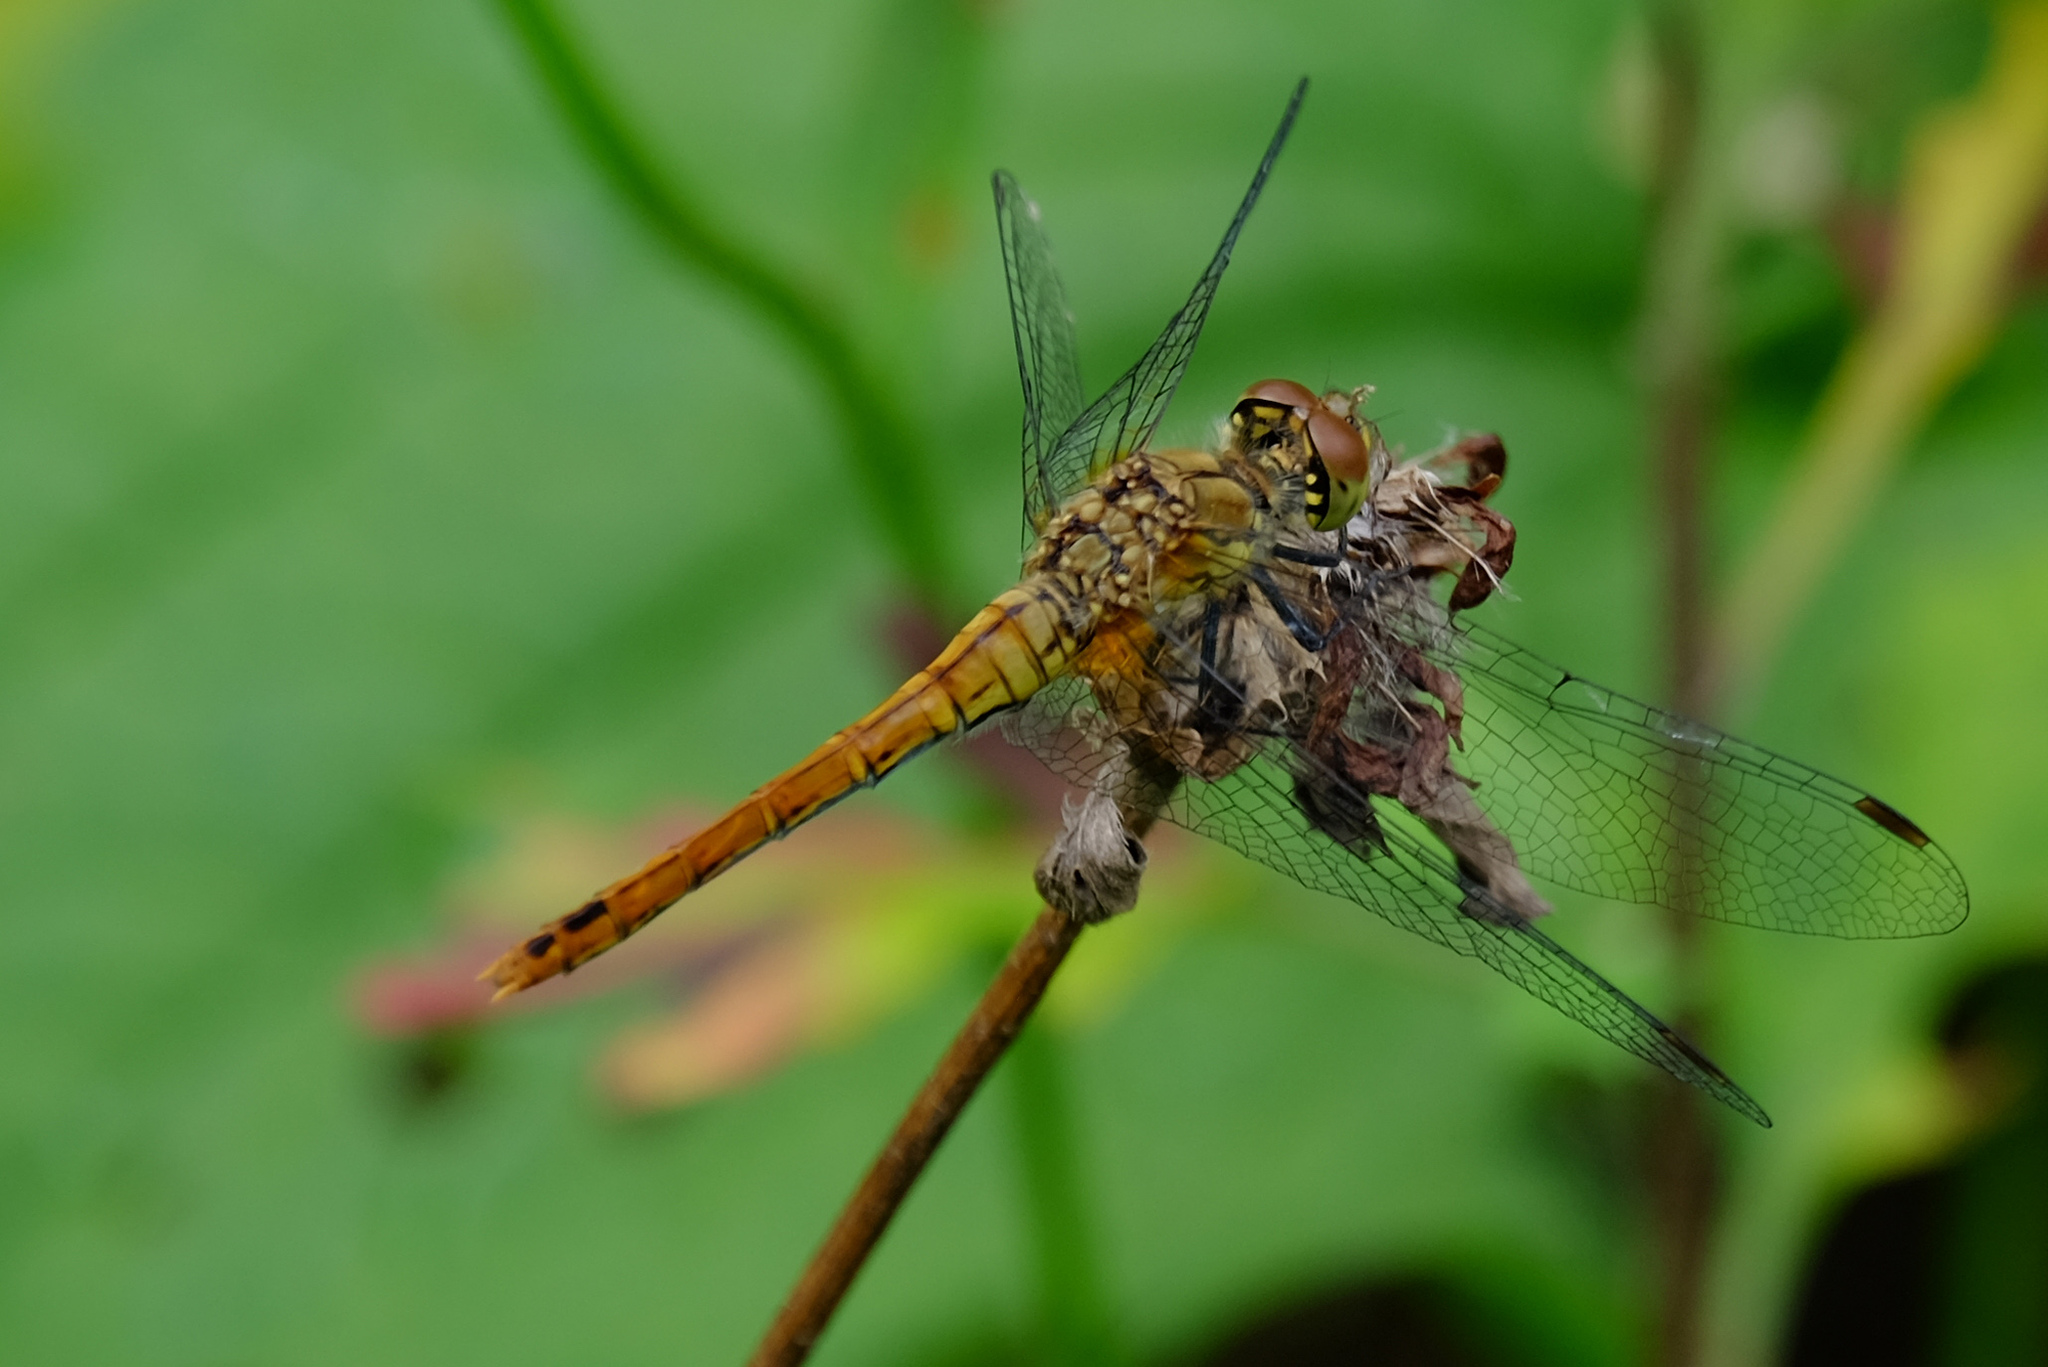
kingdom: Animalia
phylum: Arthropoda
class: Insecta
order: Odonata
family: Libellulidae
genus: Sympetrum
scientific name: Sympetrum sanguineum
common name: Ruddy darter
